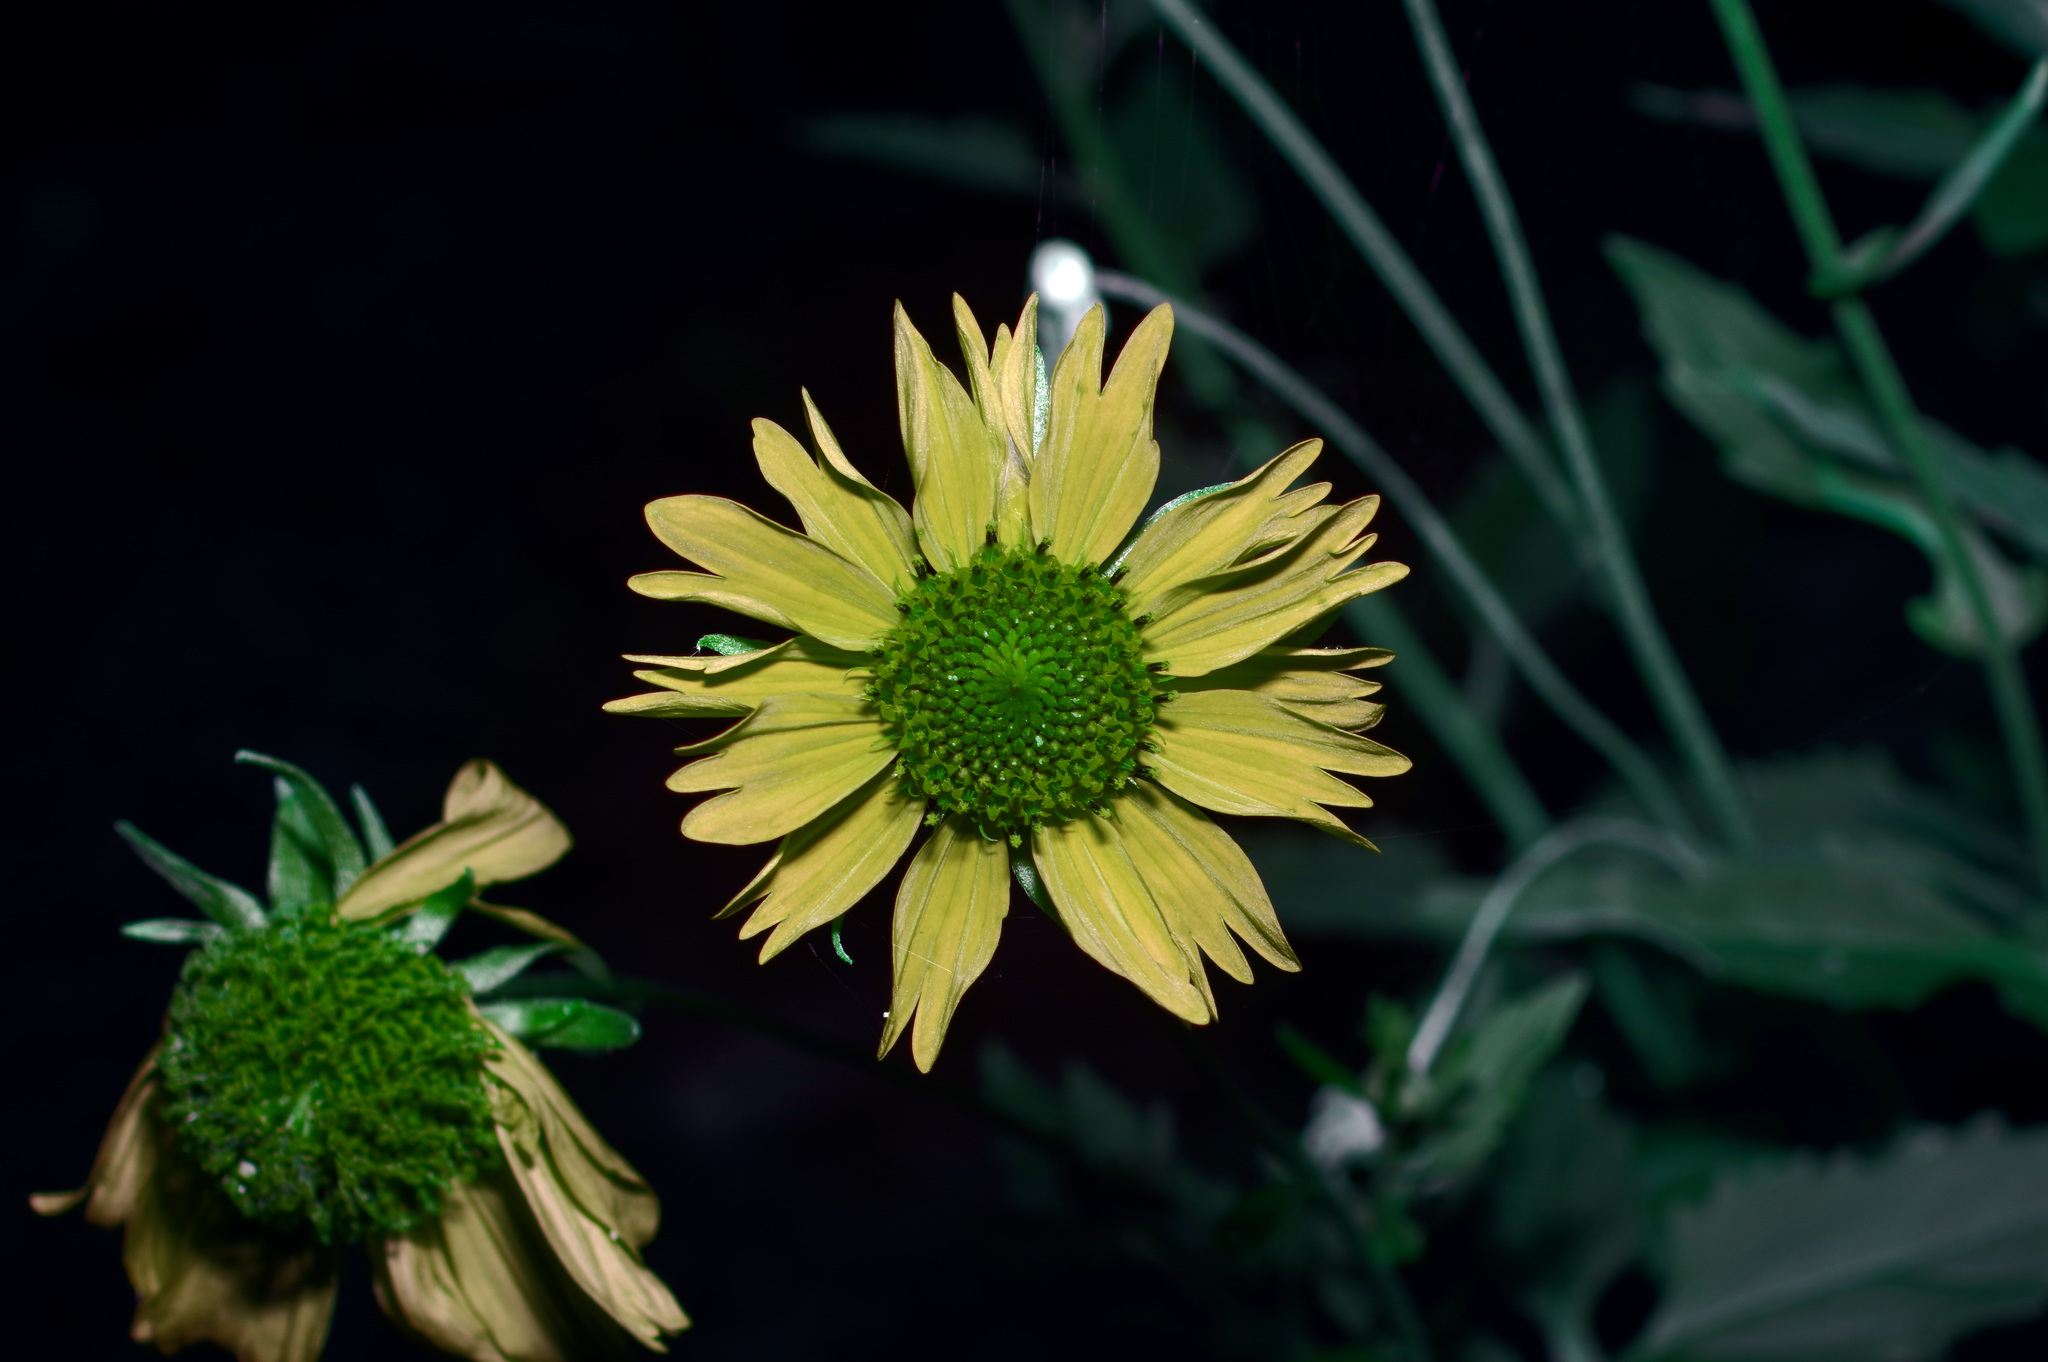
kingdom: Plantae
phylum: Tracheophyta
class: Magnoliopsida
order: Asterales
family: Asteraceae
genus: Verbesina
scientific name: Verbesina encelioides
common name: Golden crownbeard
